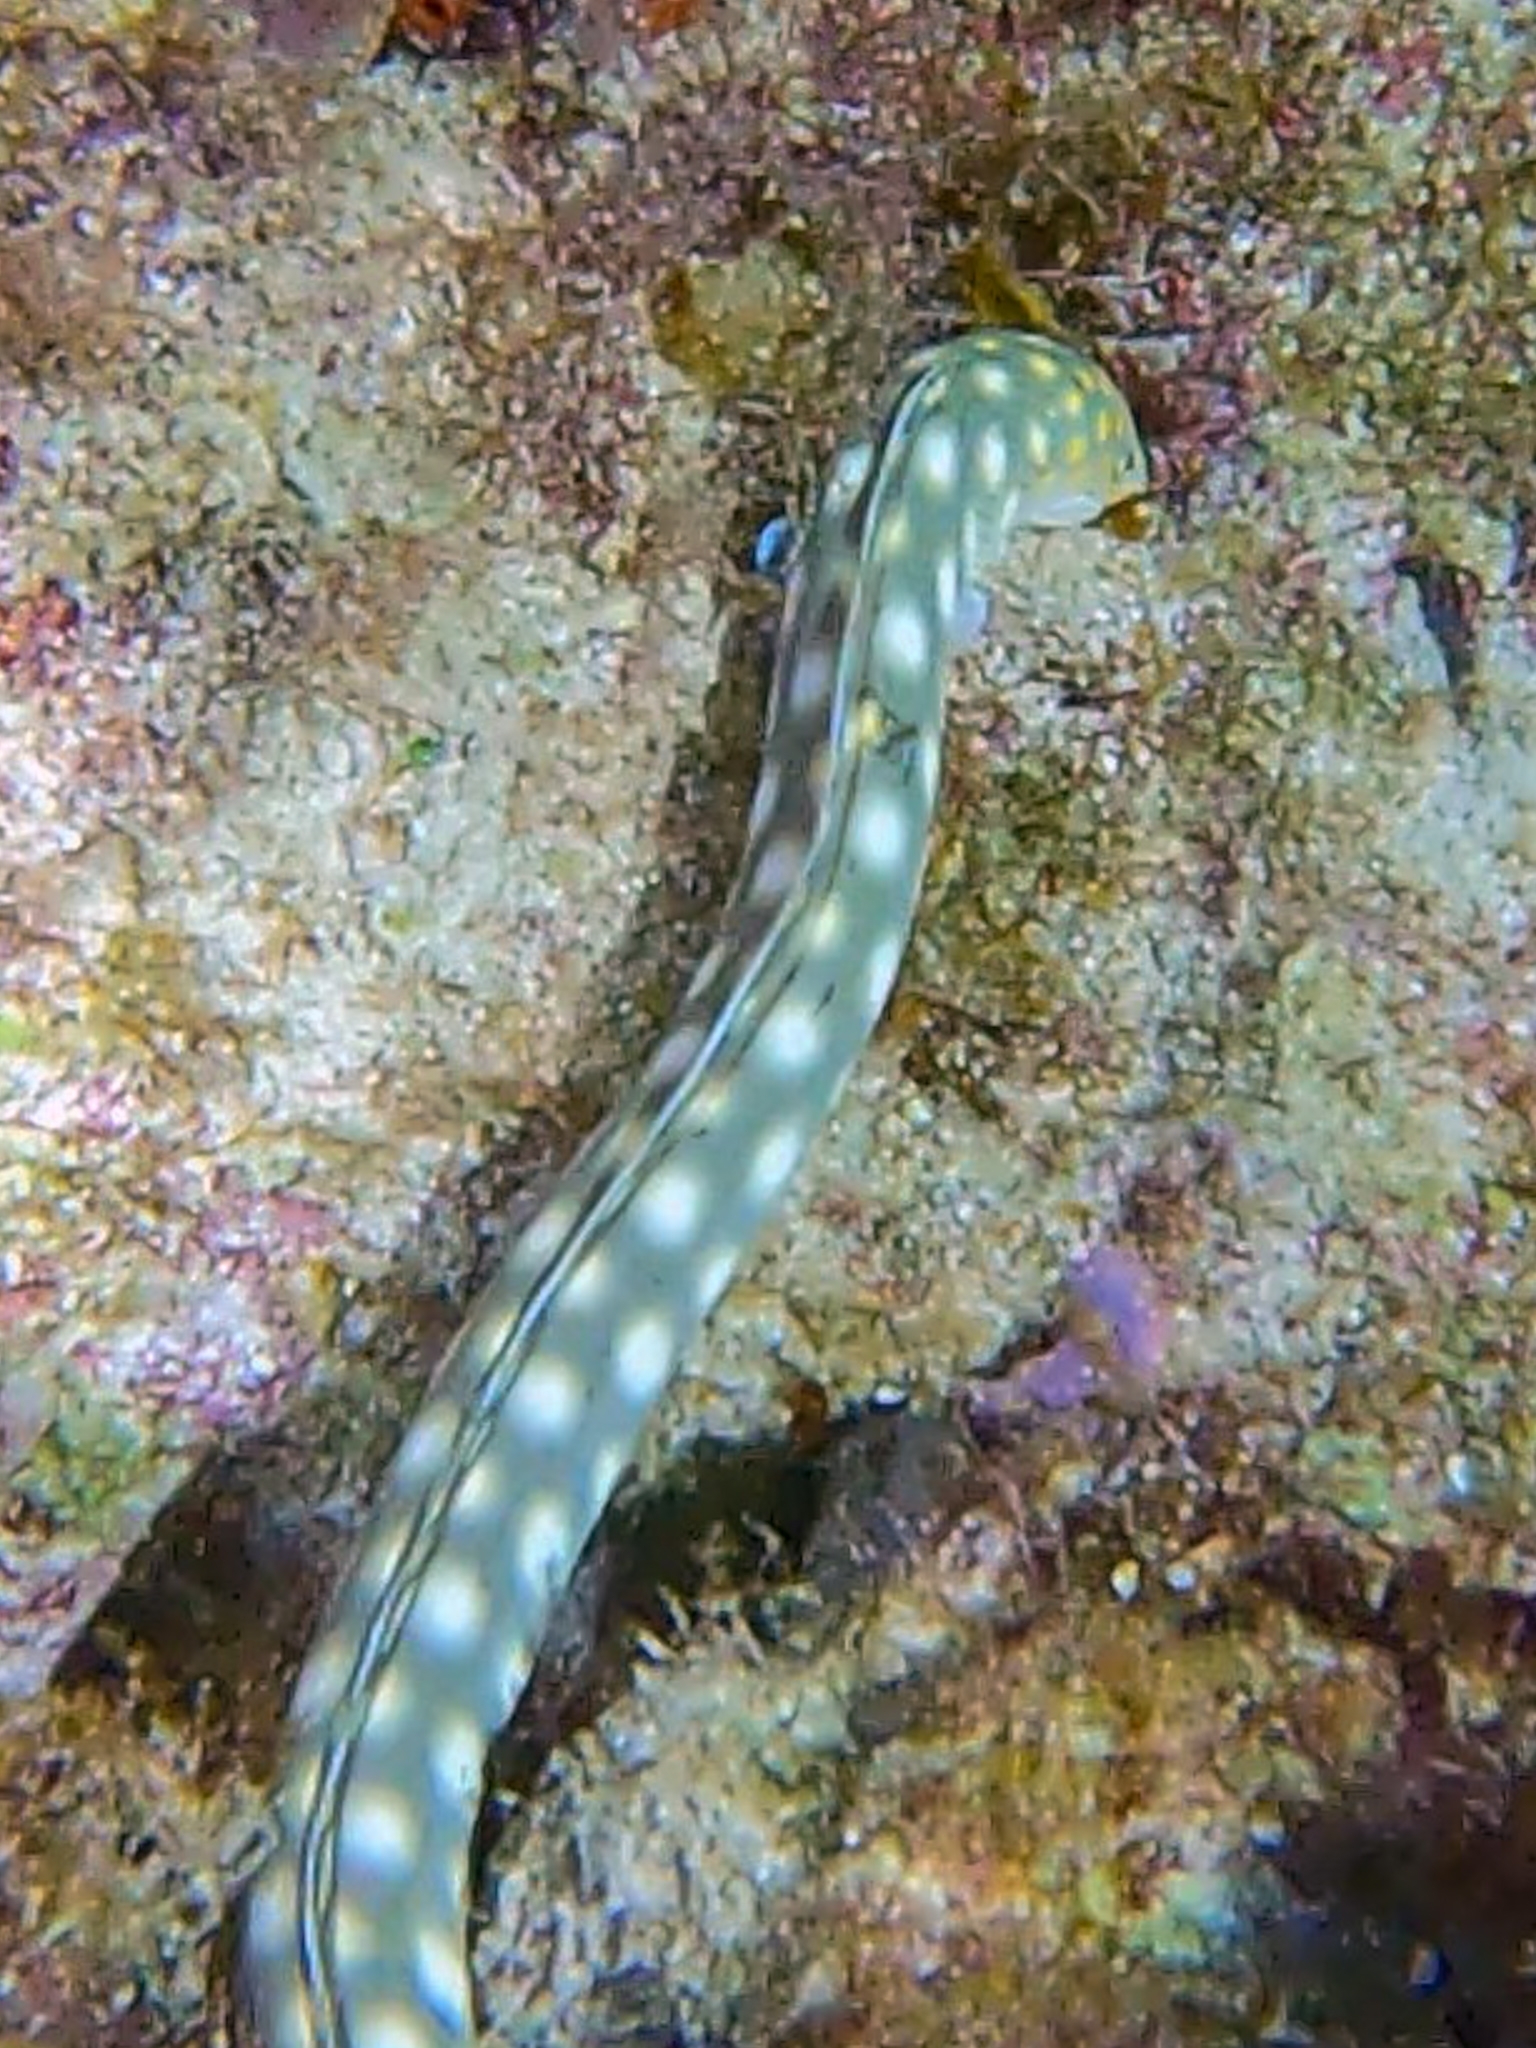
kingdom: Animalia
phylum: Chordata
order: Anguilliformes
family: Ophichthidae
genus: Myrichthys
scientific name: Myrichthys breviceps
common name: Sharptail eel
